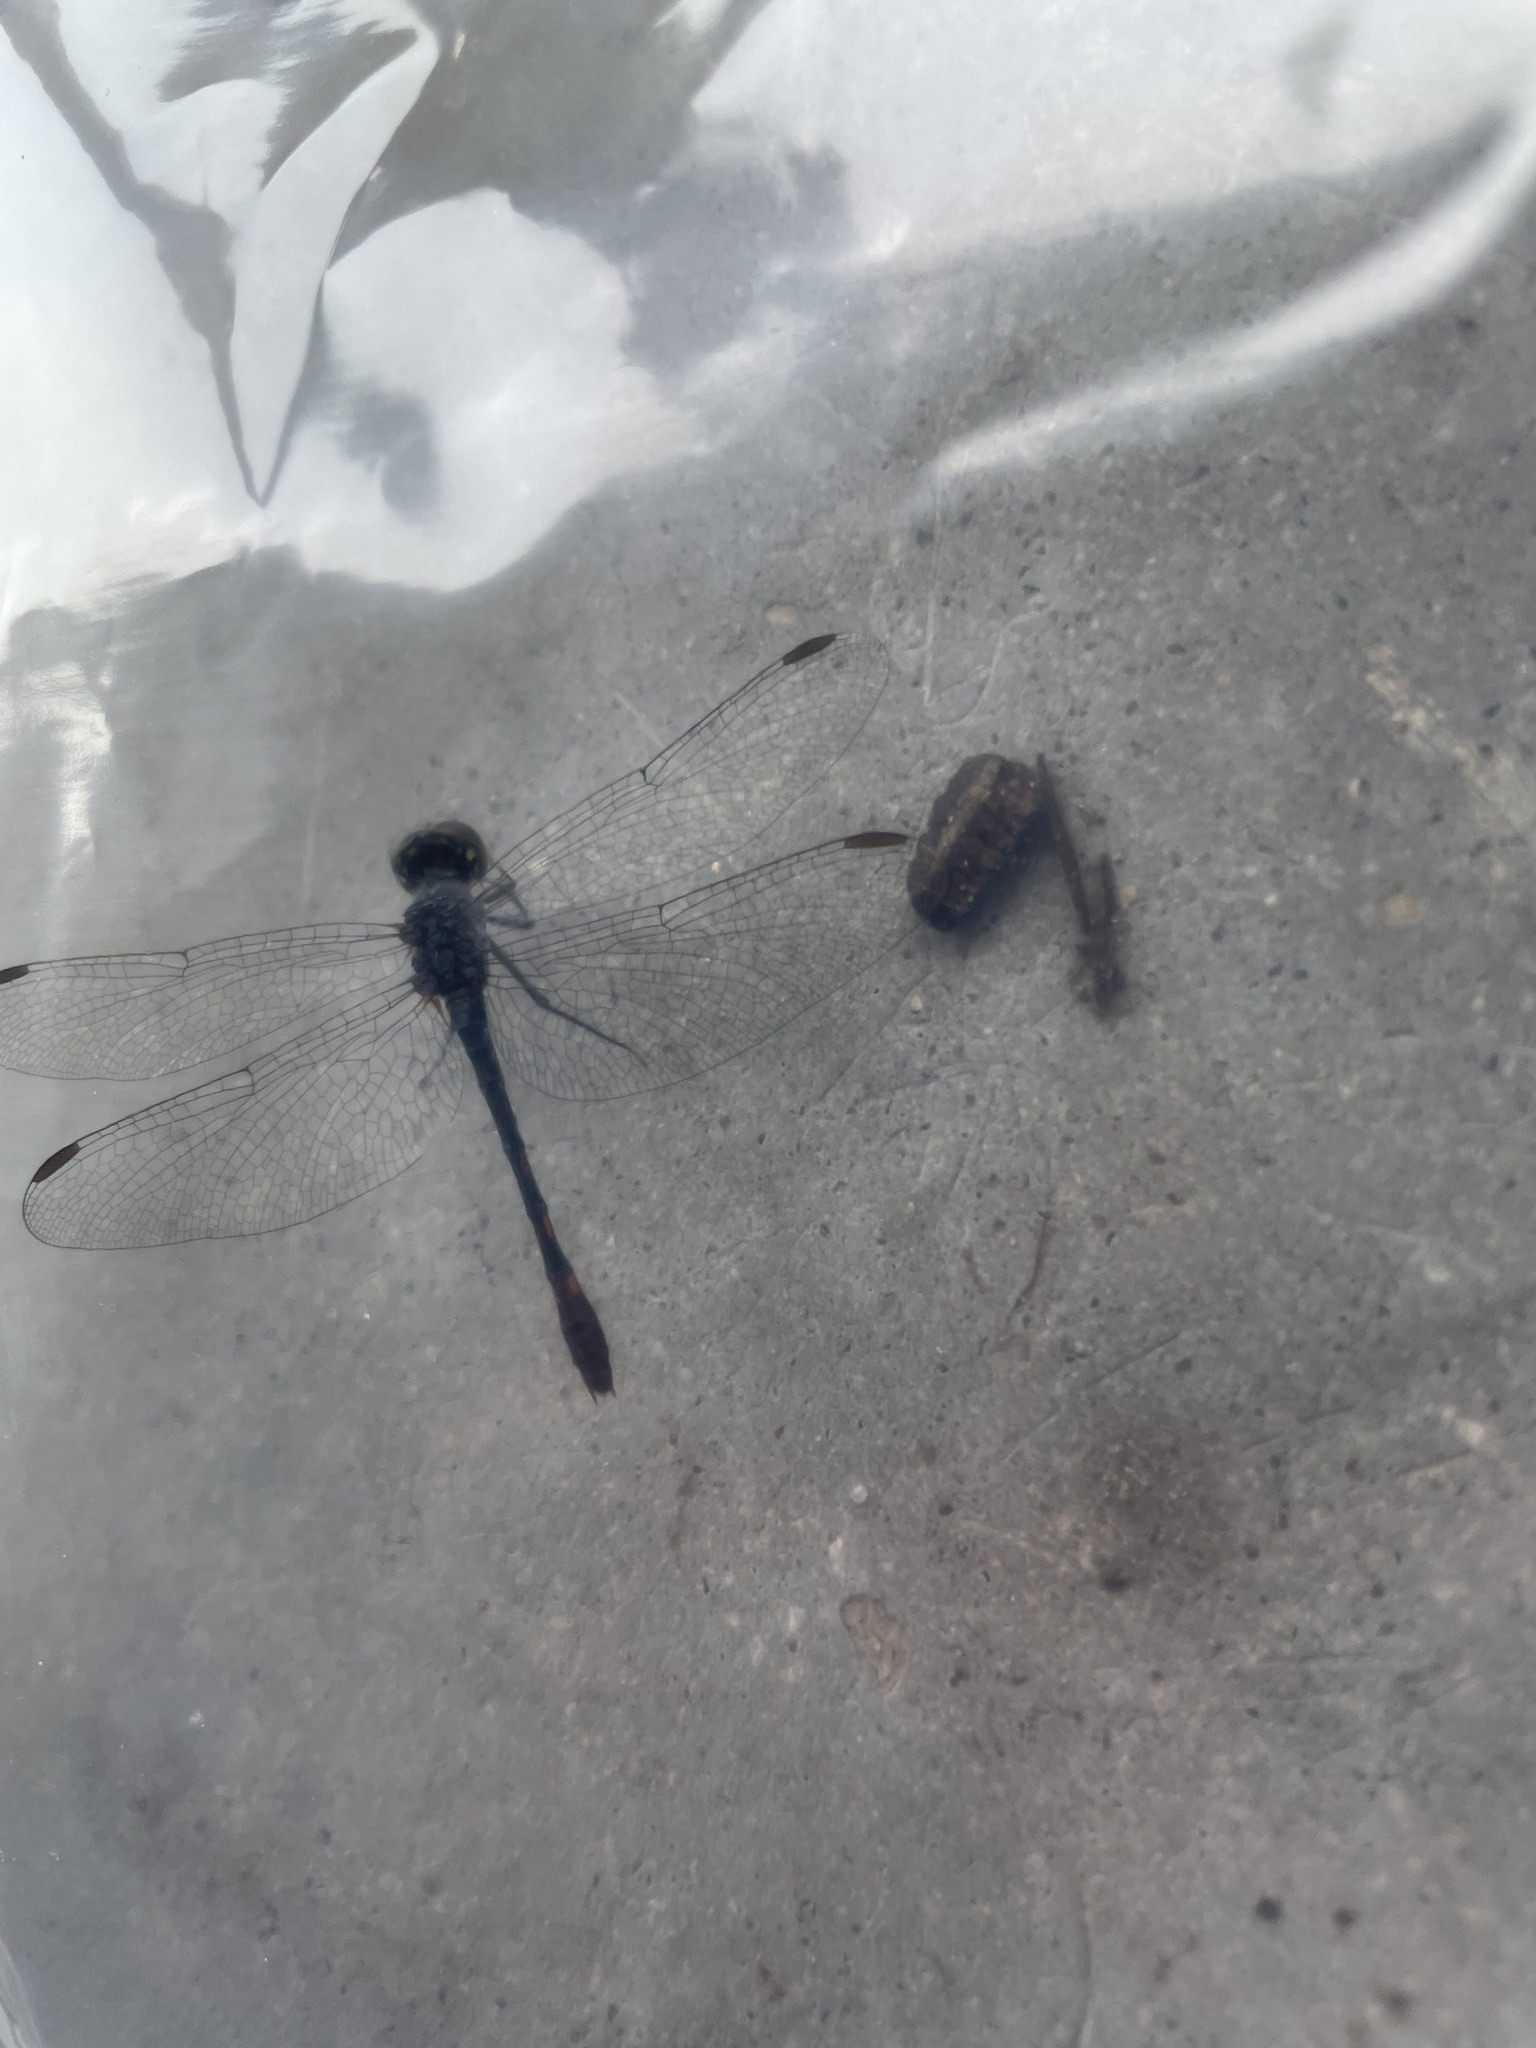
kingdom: Animalia
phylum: Arthropoda
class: Insecta
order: Odonata
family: Libellulidae
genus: Erythrodiplax
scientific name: Erythrodiplax berenice
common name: Seaside dragonlet
